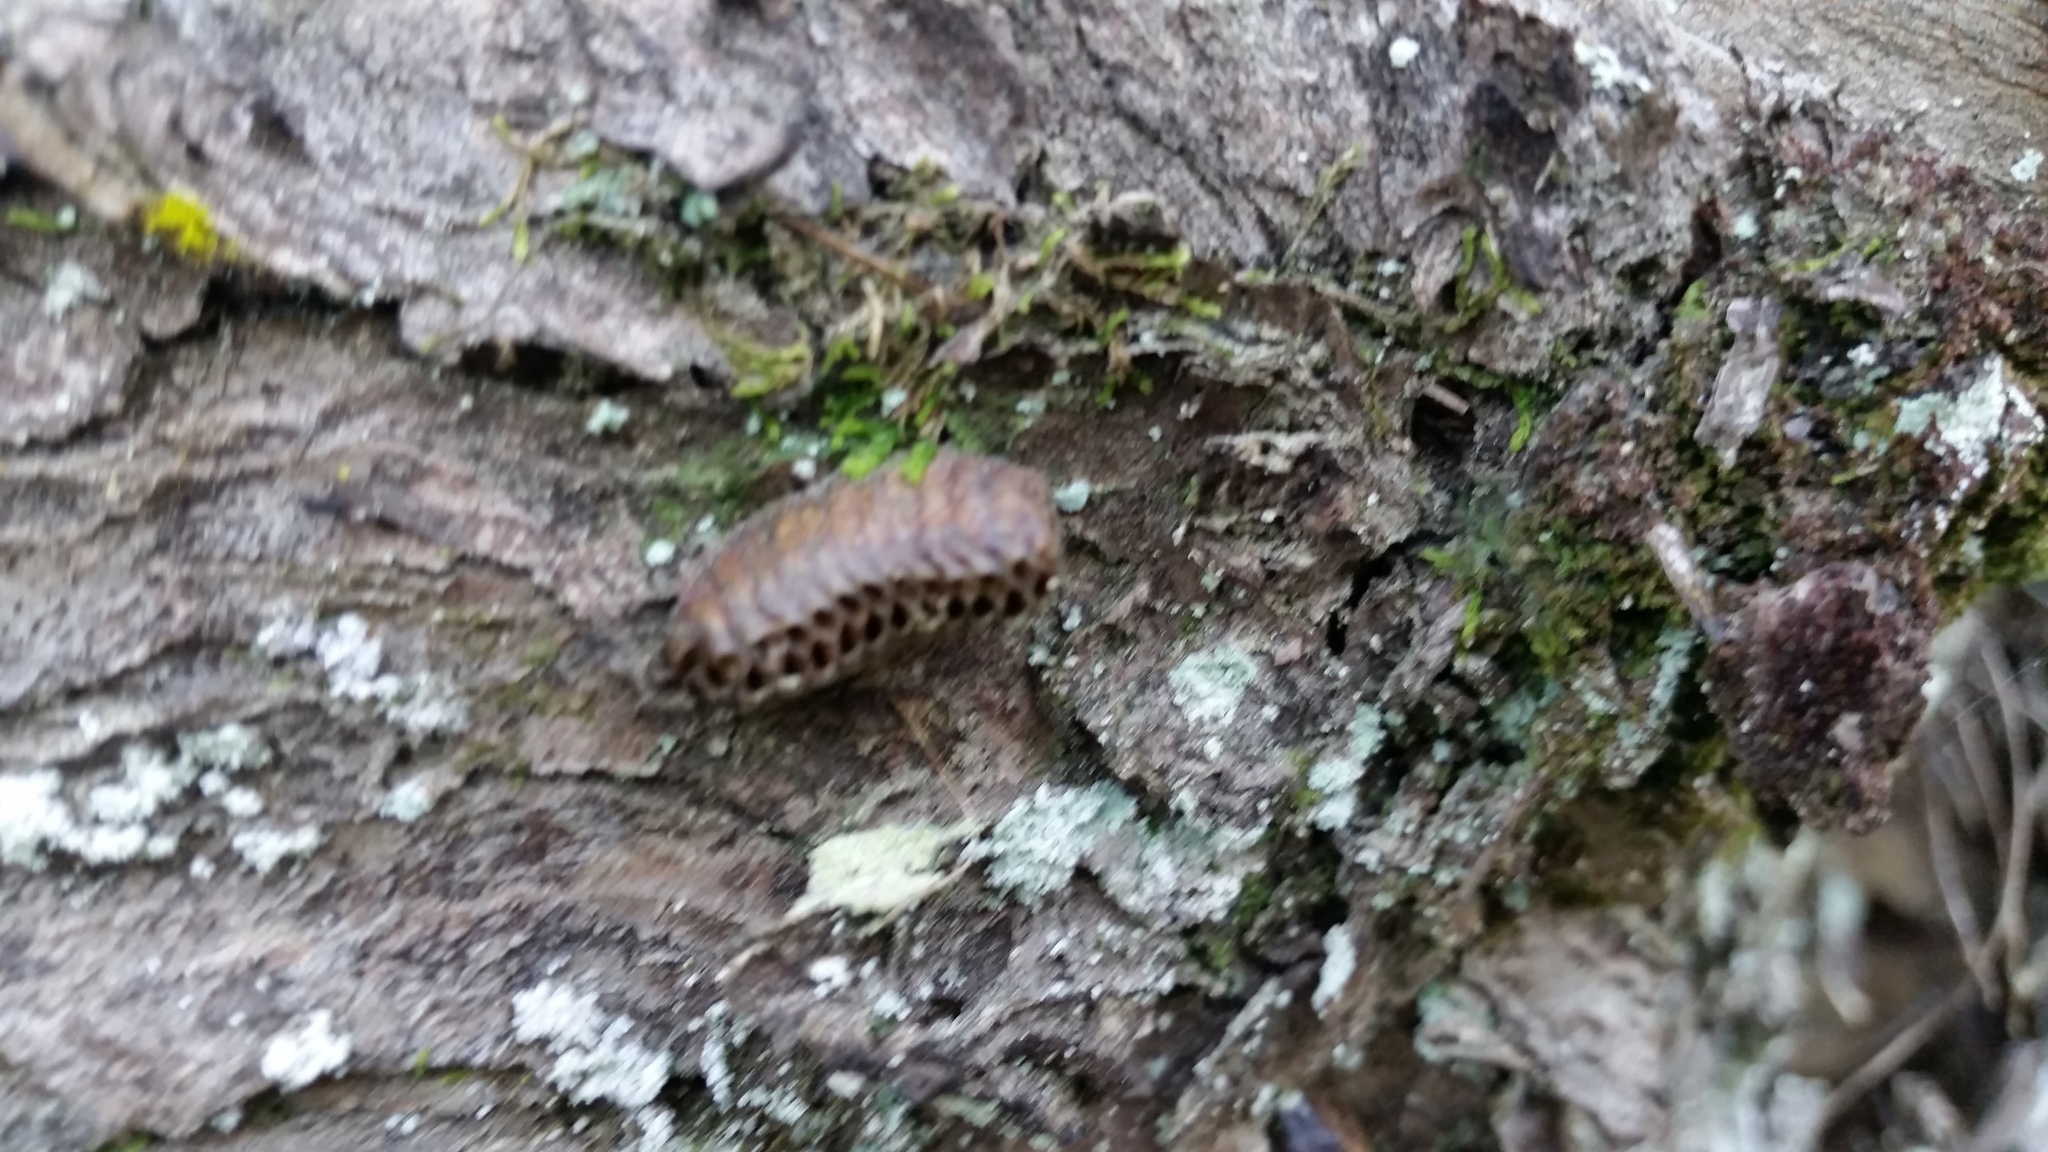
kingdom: Animalia
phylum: Arthropoda
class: Insecta
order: Mantodea
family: Mantidae
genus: Orthodera
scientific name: Orthodera novaezealandiae
